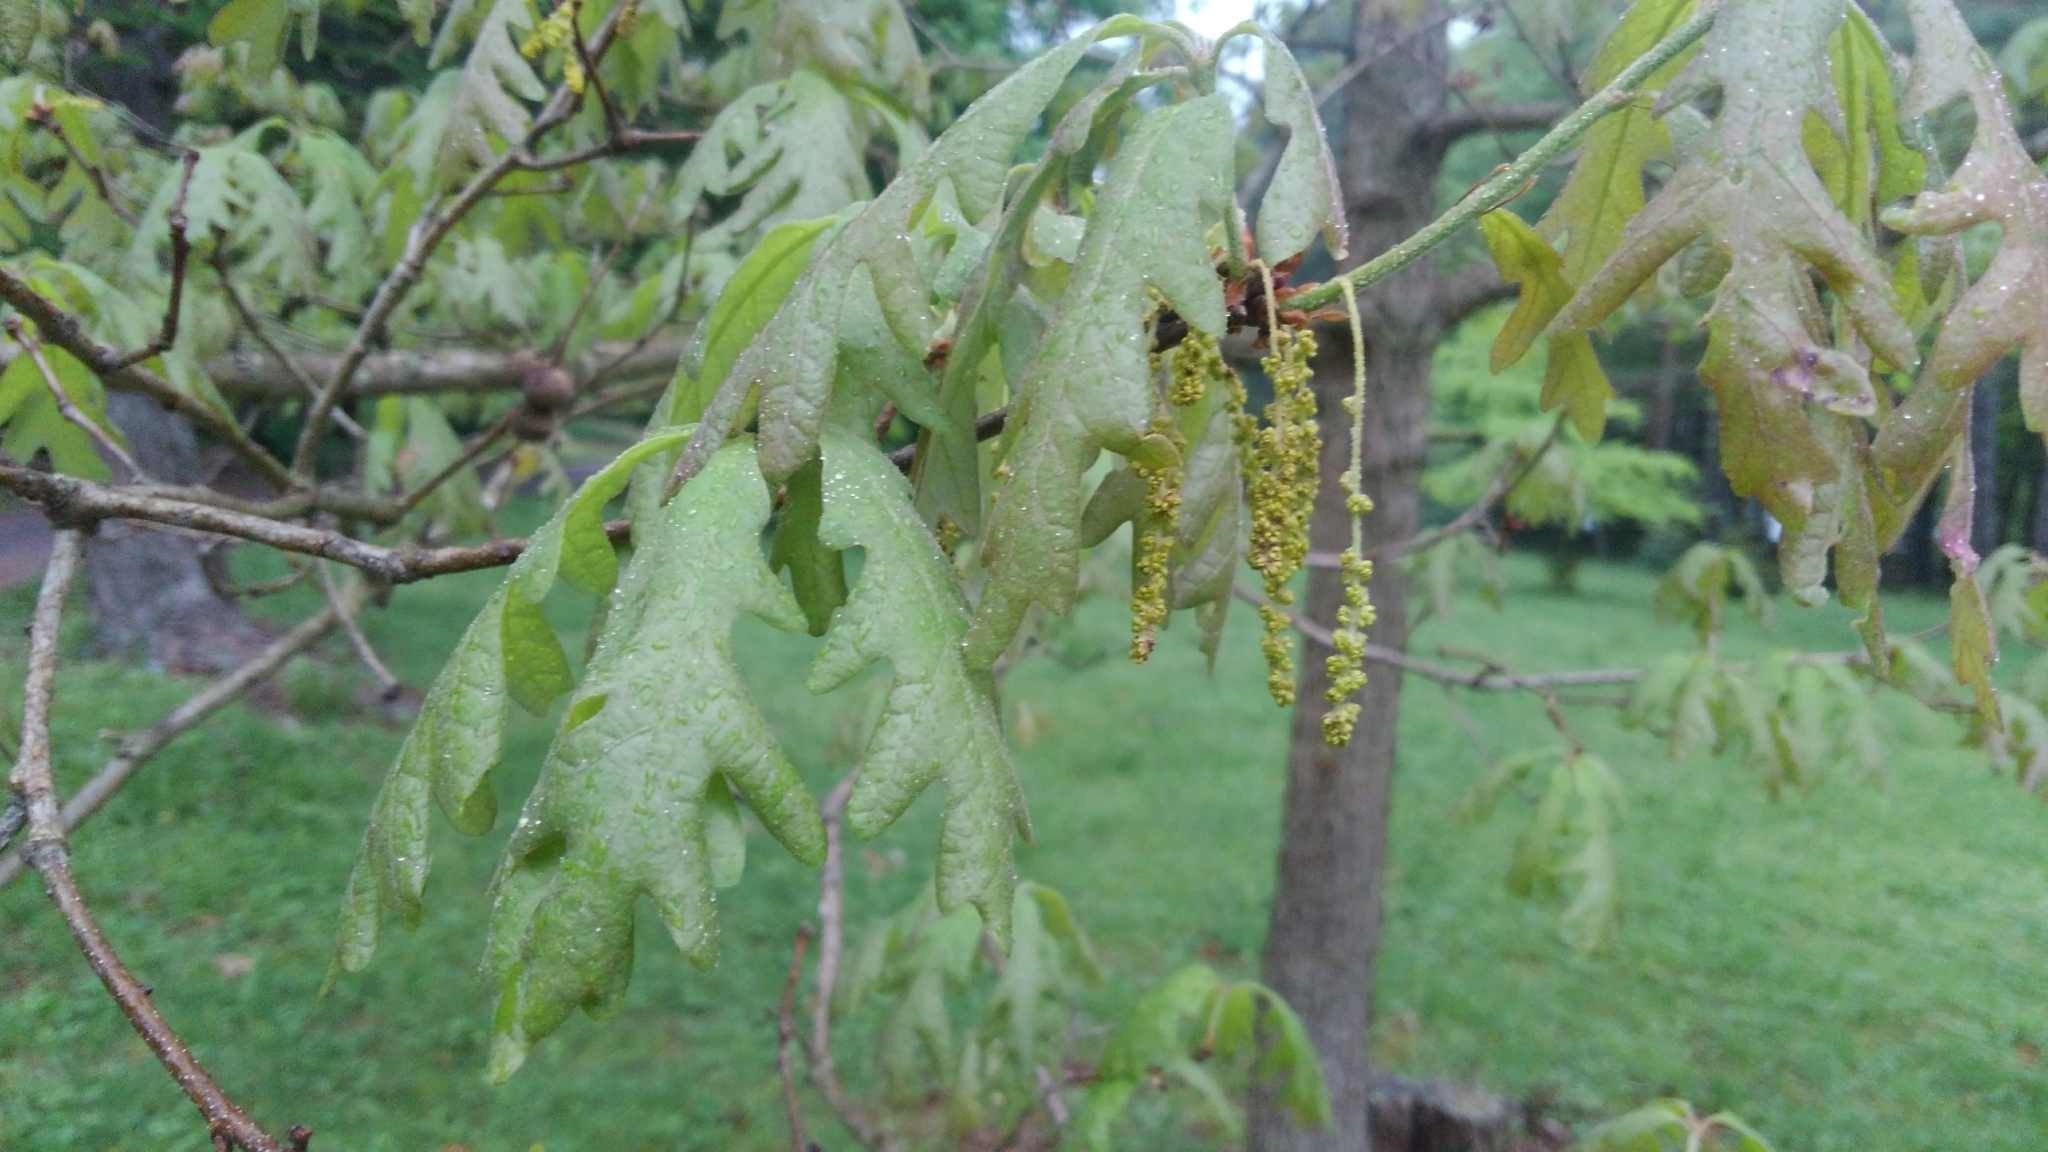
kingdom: Plantae
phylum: Tracheophyta
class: Magnoliopsida
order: Fagales
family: Fagaceae
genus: Quercus
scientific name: Quercus alba
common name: White oak
